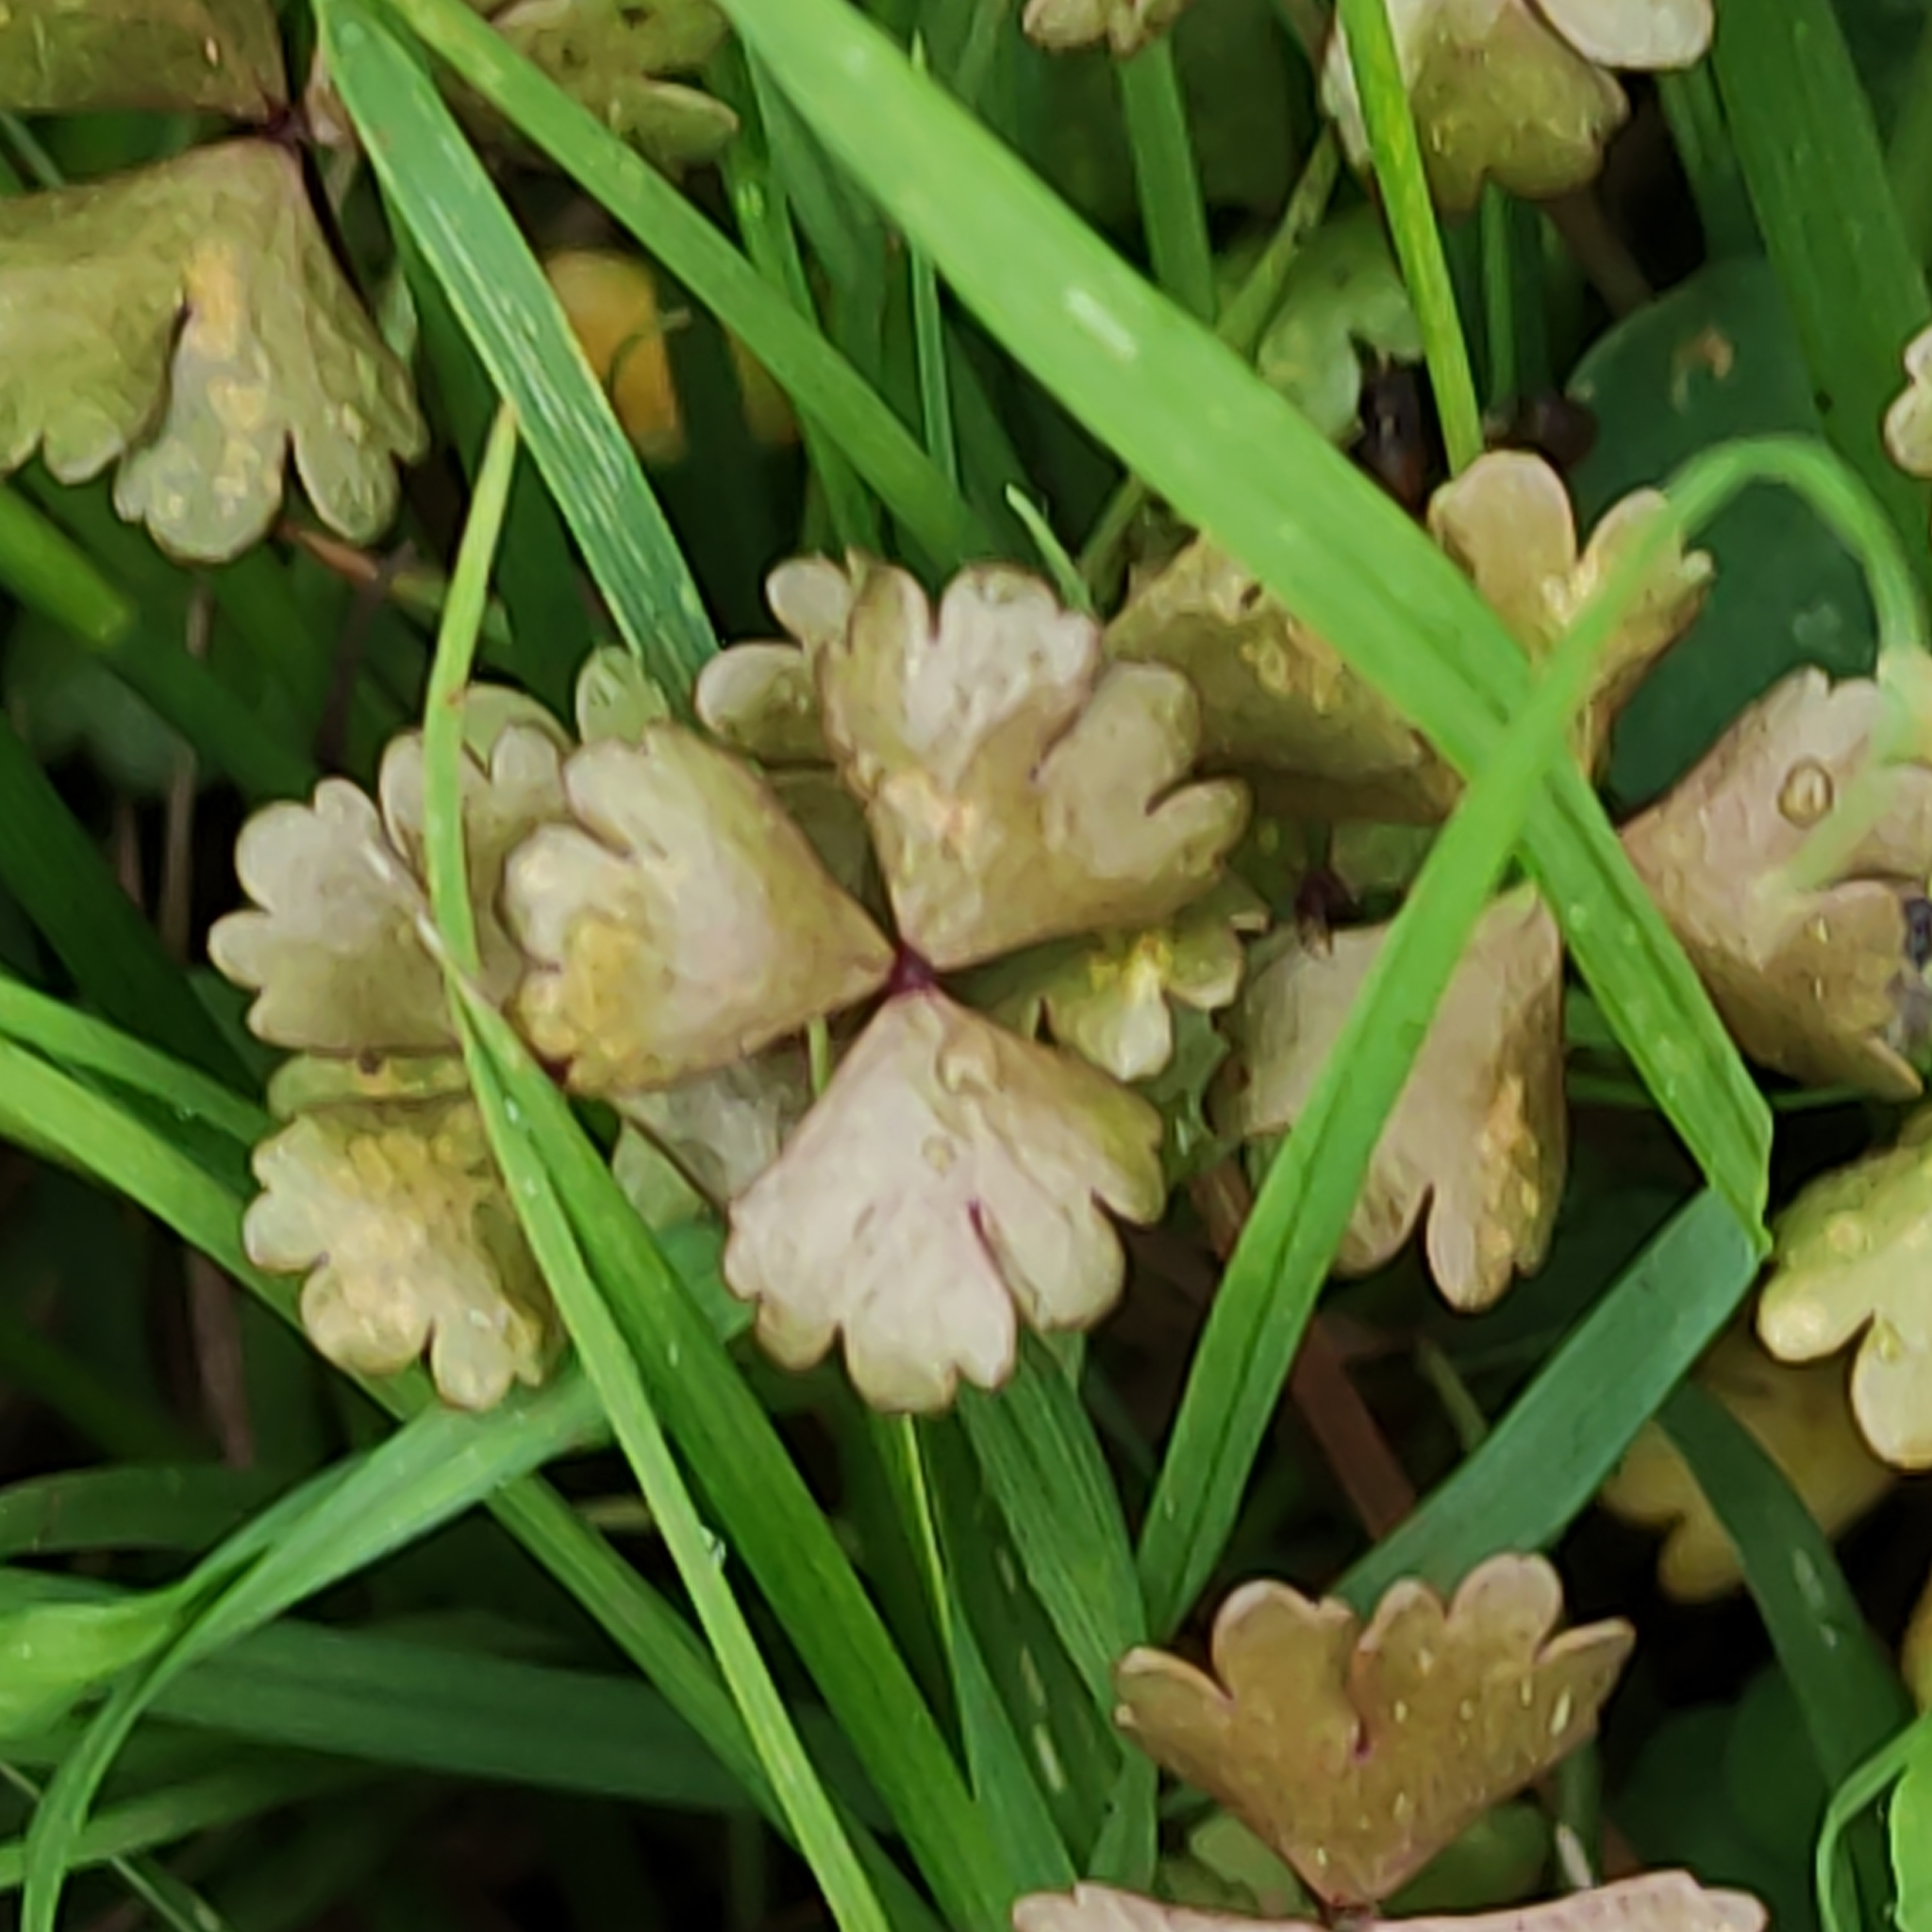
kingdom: Plantae
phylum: Tracheophyta
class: Magnoliopsida
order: Apiales
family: Araliaceae
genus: Hydrocotyle
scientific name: Hydrocotyle sulcata
